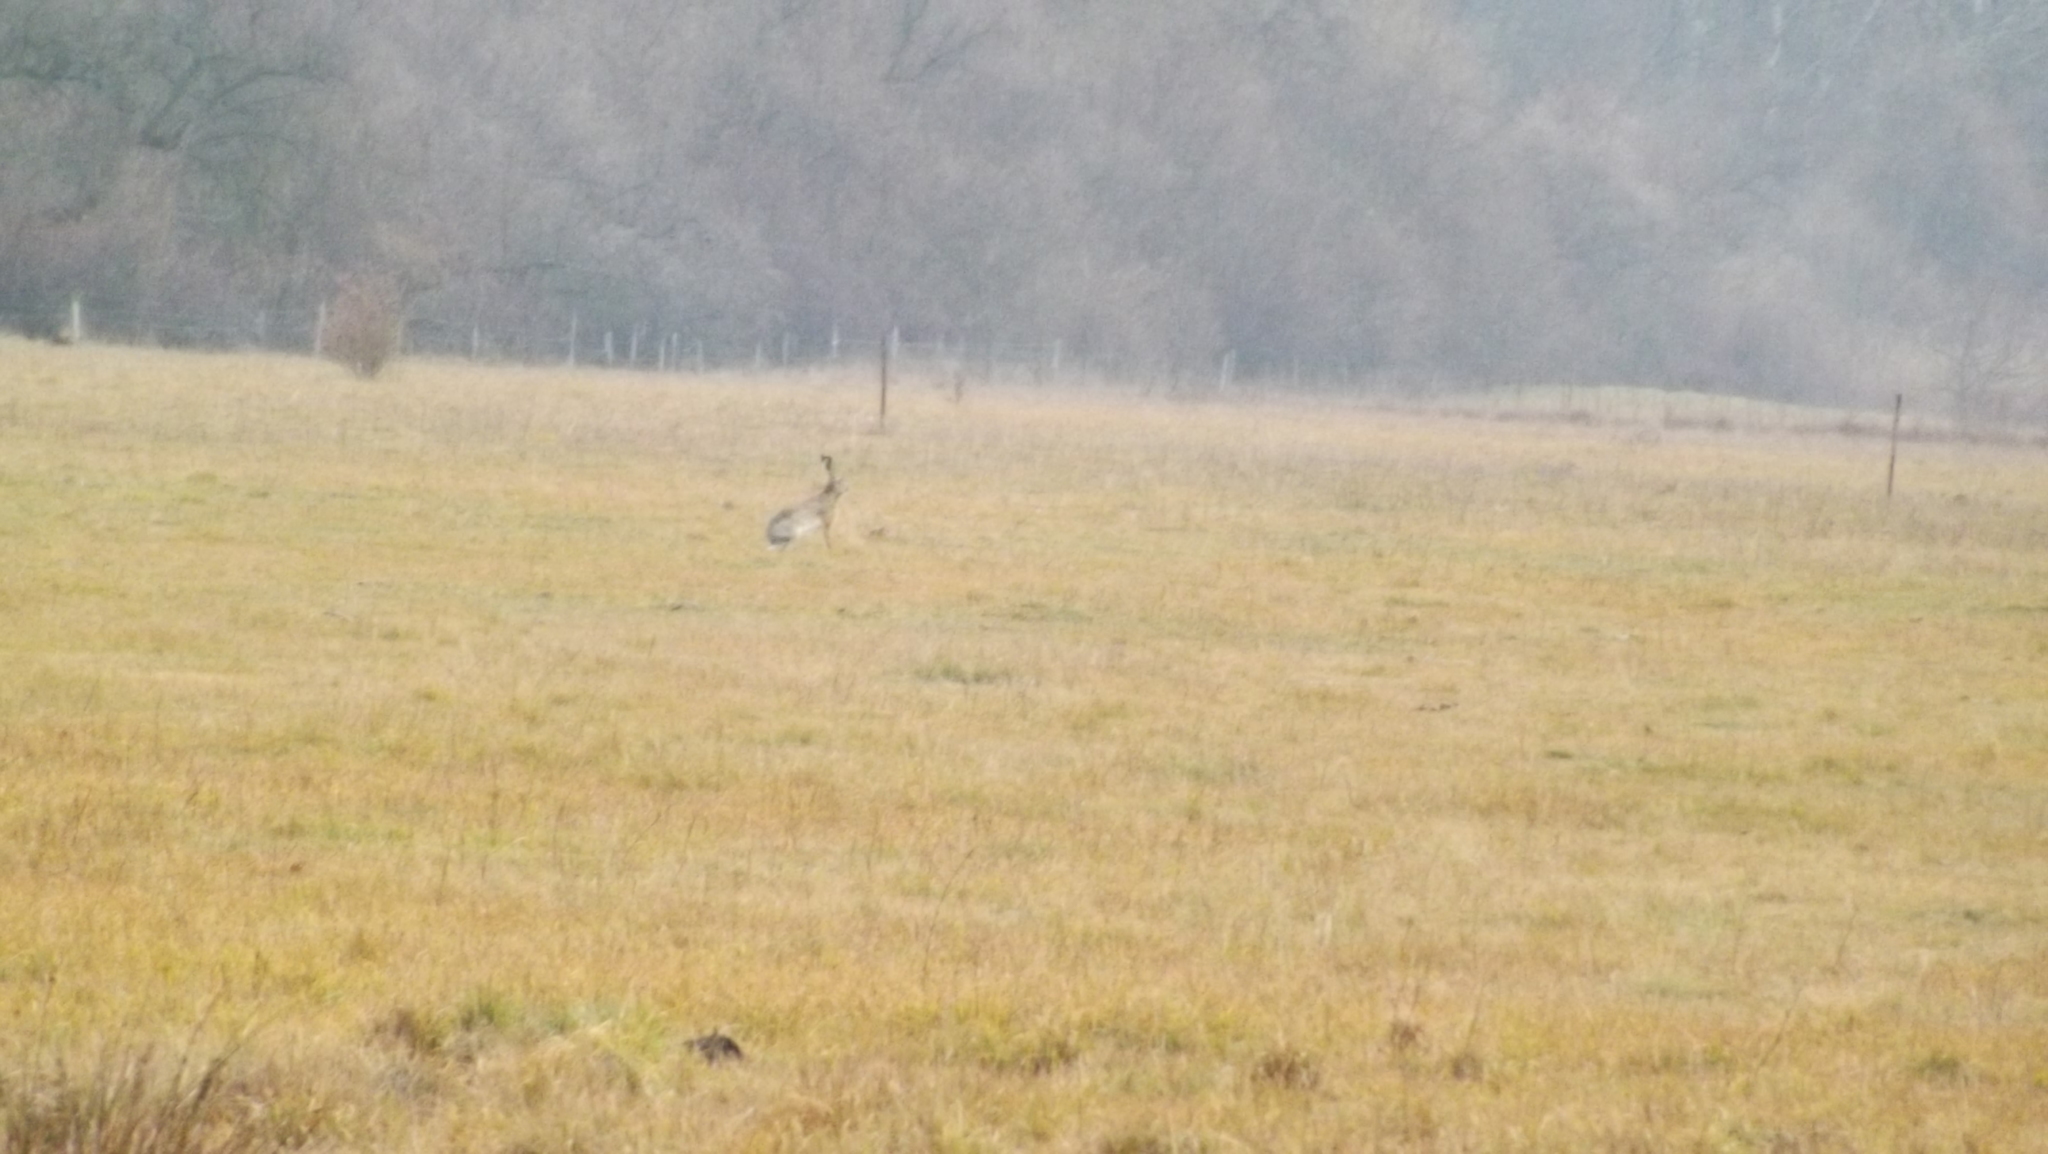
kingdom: Animalia
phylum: Chordata
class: Mammalia
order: Lagomorpha
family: Leporidae
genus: Lepus
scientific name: Lepus europaeus
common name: European hare
